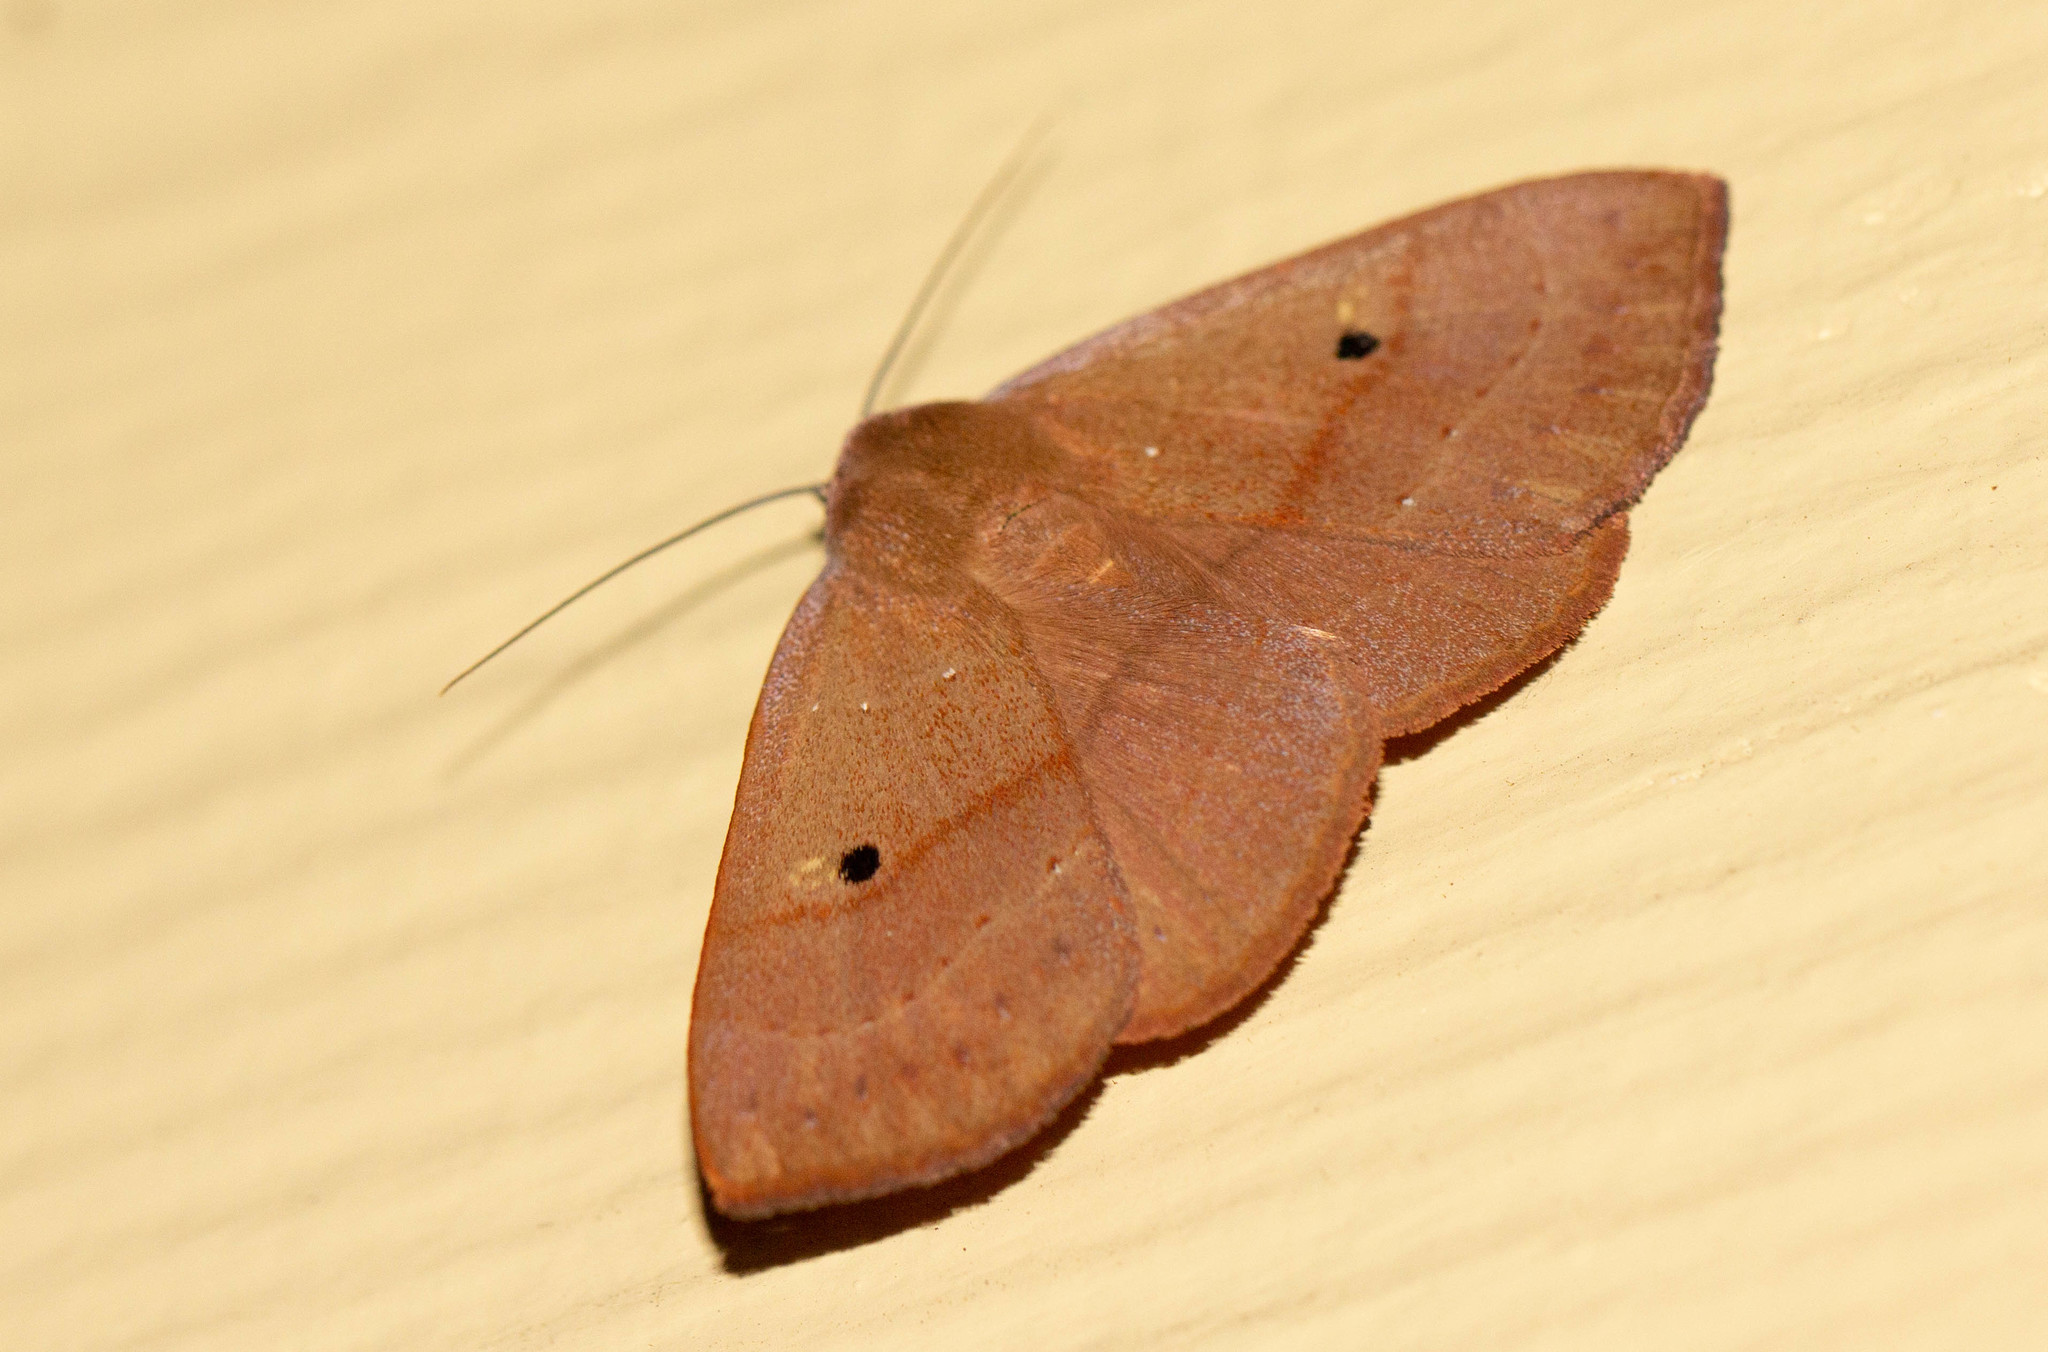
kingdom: Animalia
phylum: Arthropoda
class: Insecta
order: Lepidoptera
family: Erebidae
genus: Panopoda
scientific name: Panopoda repanda
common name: Orange panopoda
